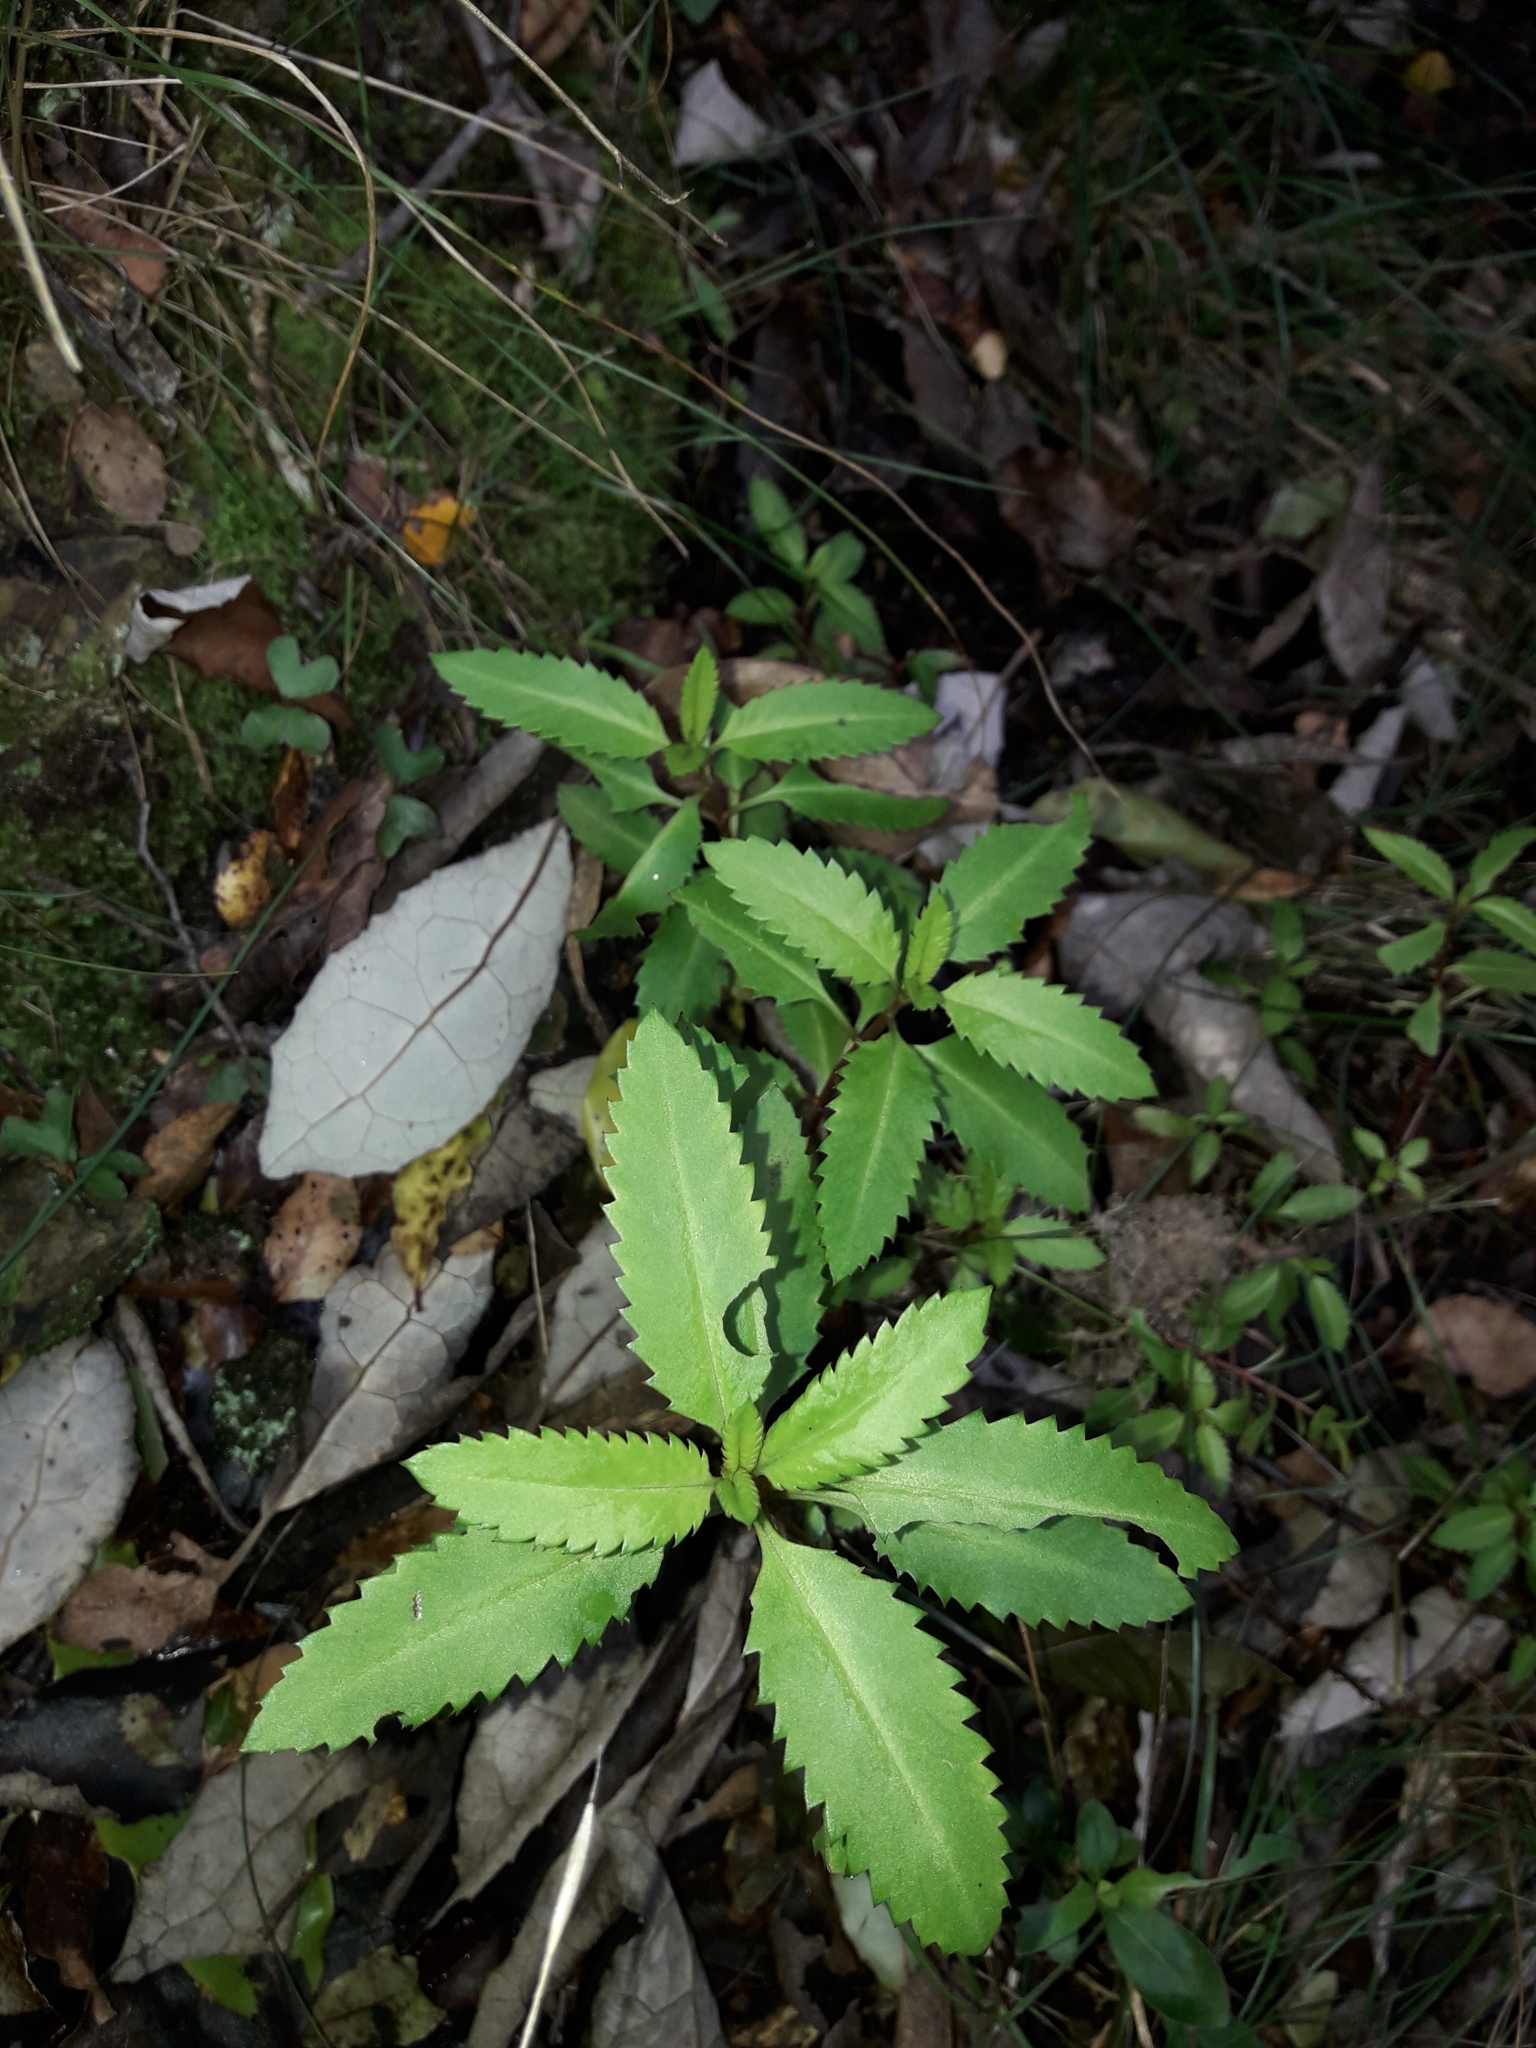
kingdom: Plantae
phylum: Tracheophyta
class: Magnoliopsida
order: Saxifragales
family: Haloragaceae
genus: Haloragis
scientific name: Haloragis erecta
